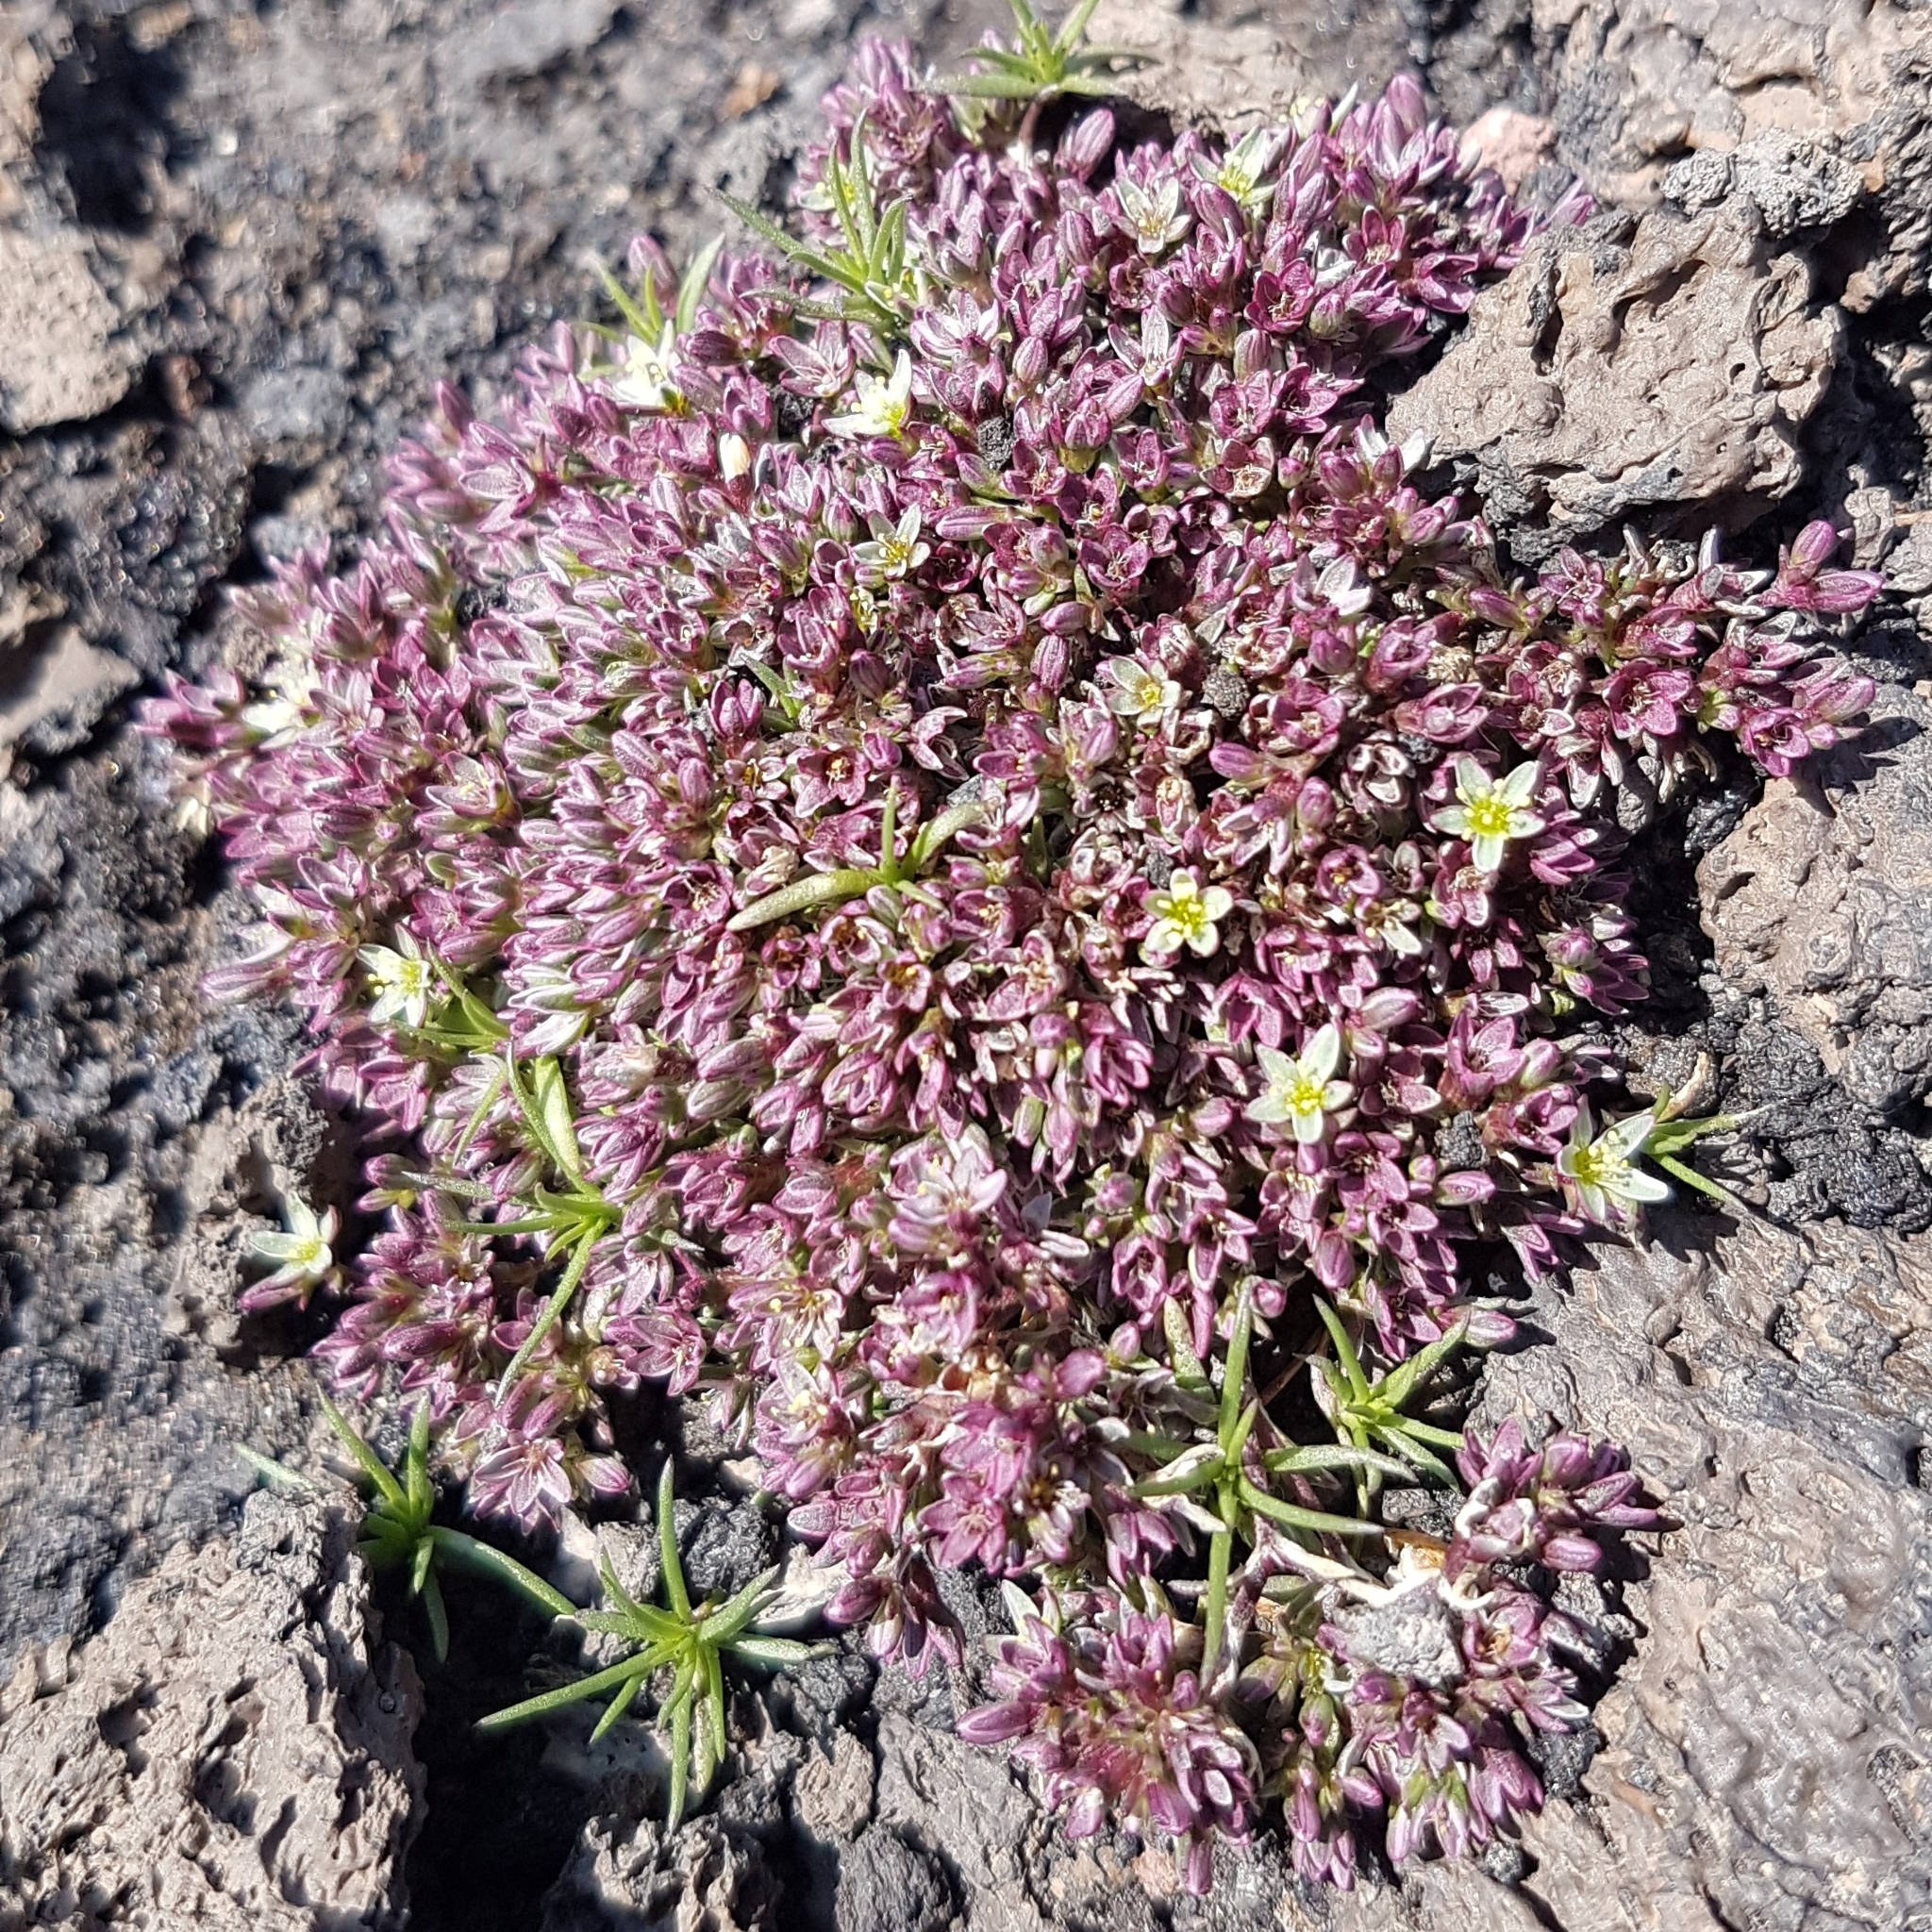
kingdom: Plantae
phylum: Tracheophyta
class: Magnoliopsida
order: Caryophyllales
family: Caryophyllaceae
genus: Scleranthus
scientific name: Scleranthus perennis
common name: Perennial knawel
